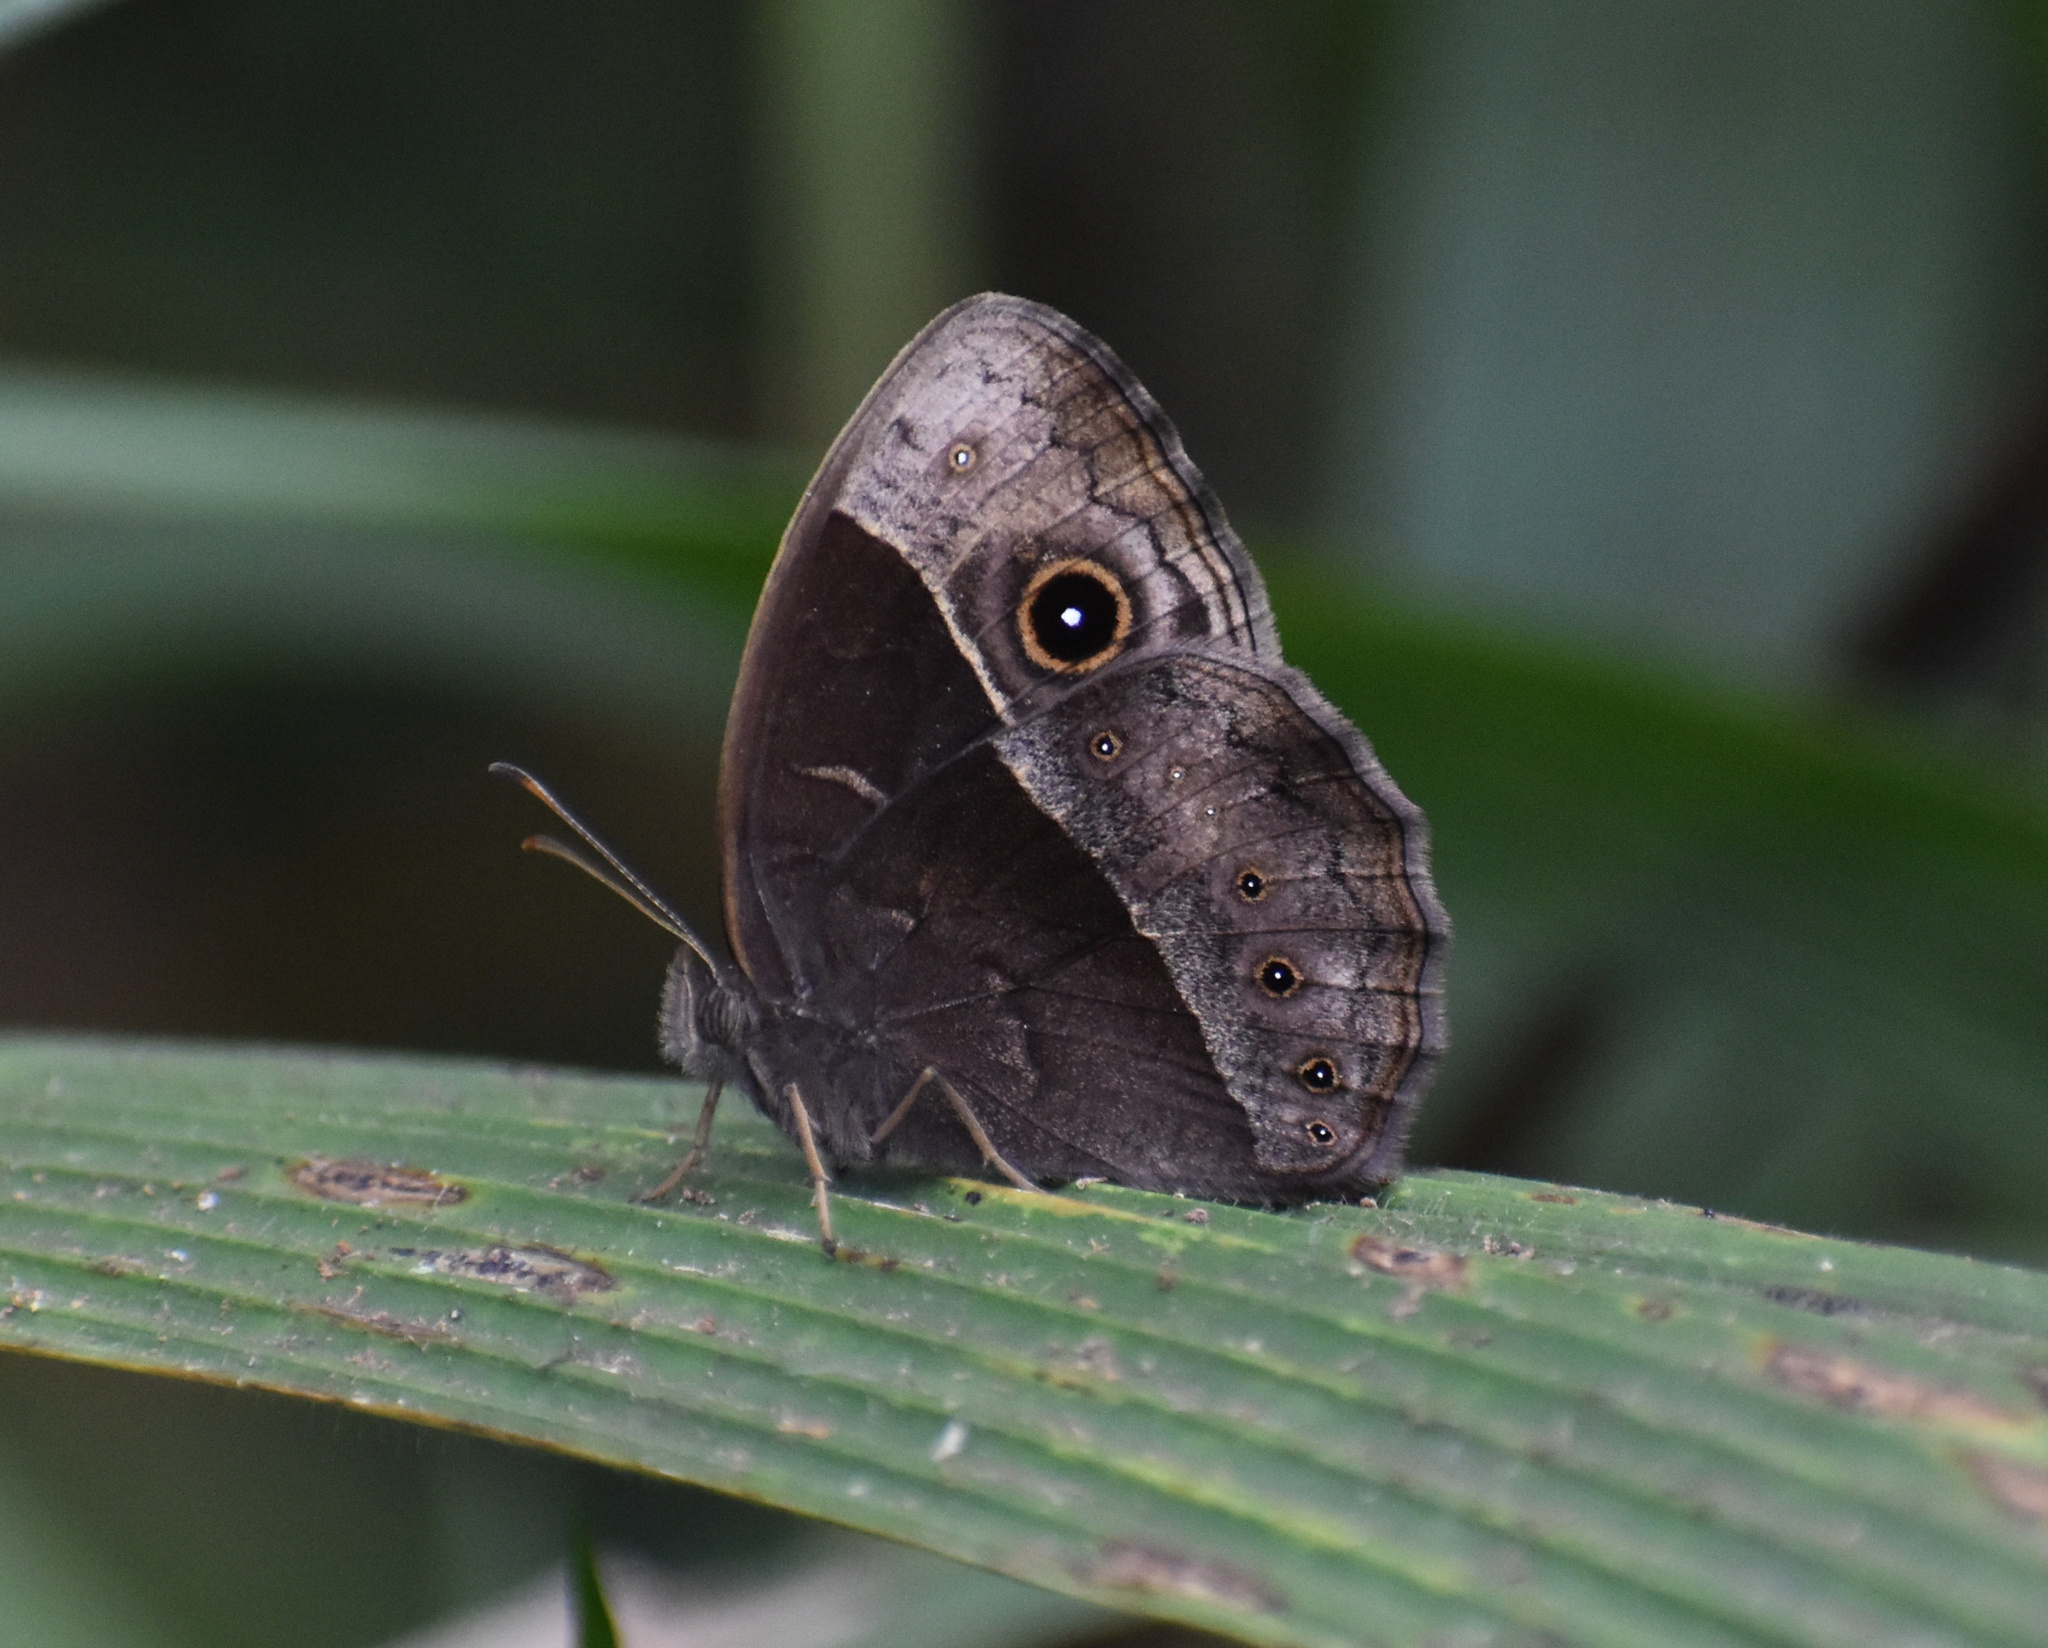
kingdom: Animalia
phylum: Arthropoda
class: Insecta
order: Lepidoptera
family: Nymphalidae
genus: Mycalesis
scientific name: Mycalesis rhacotis
